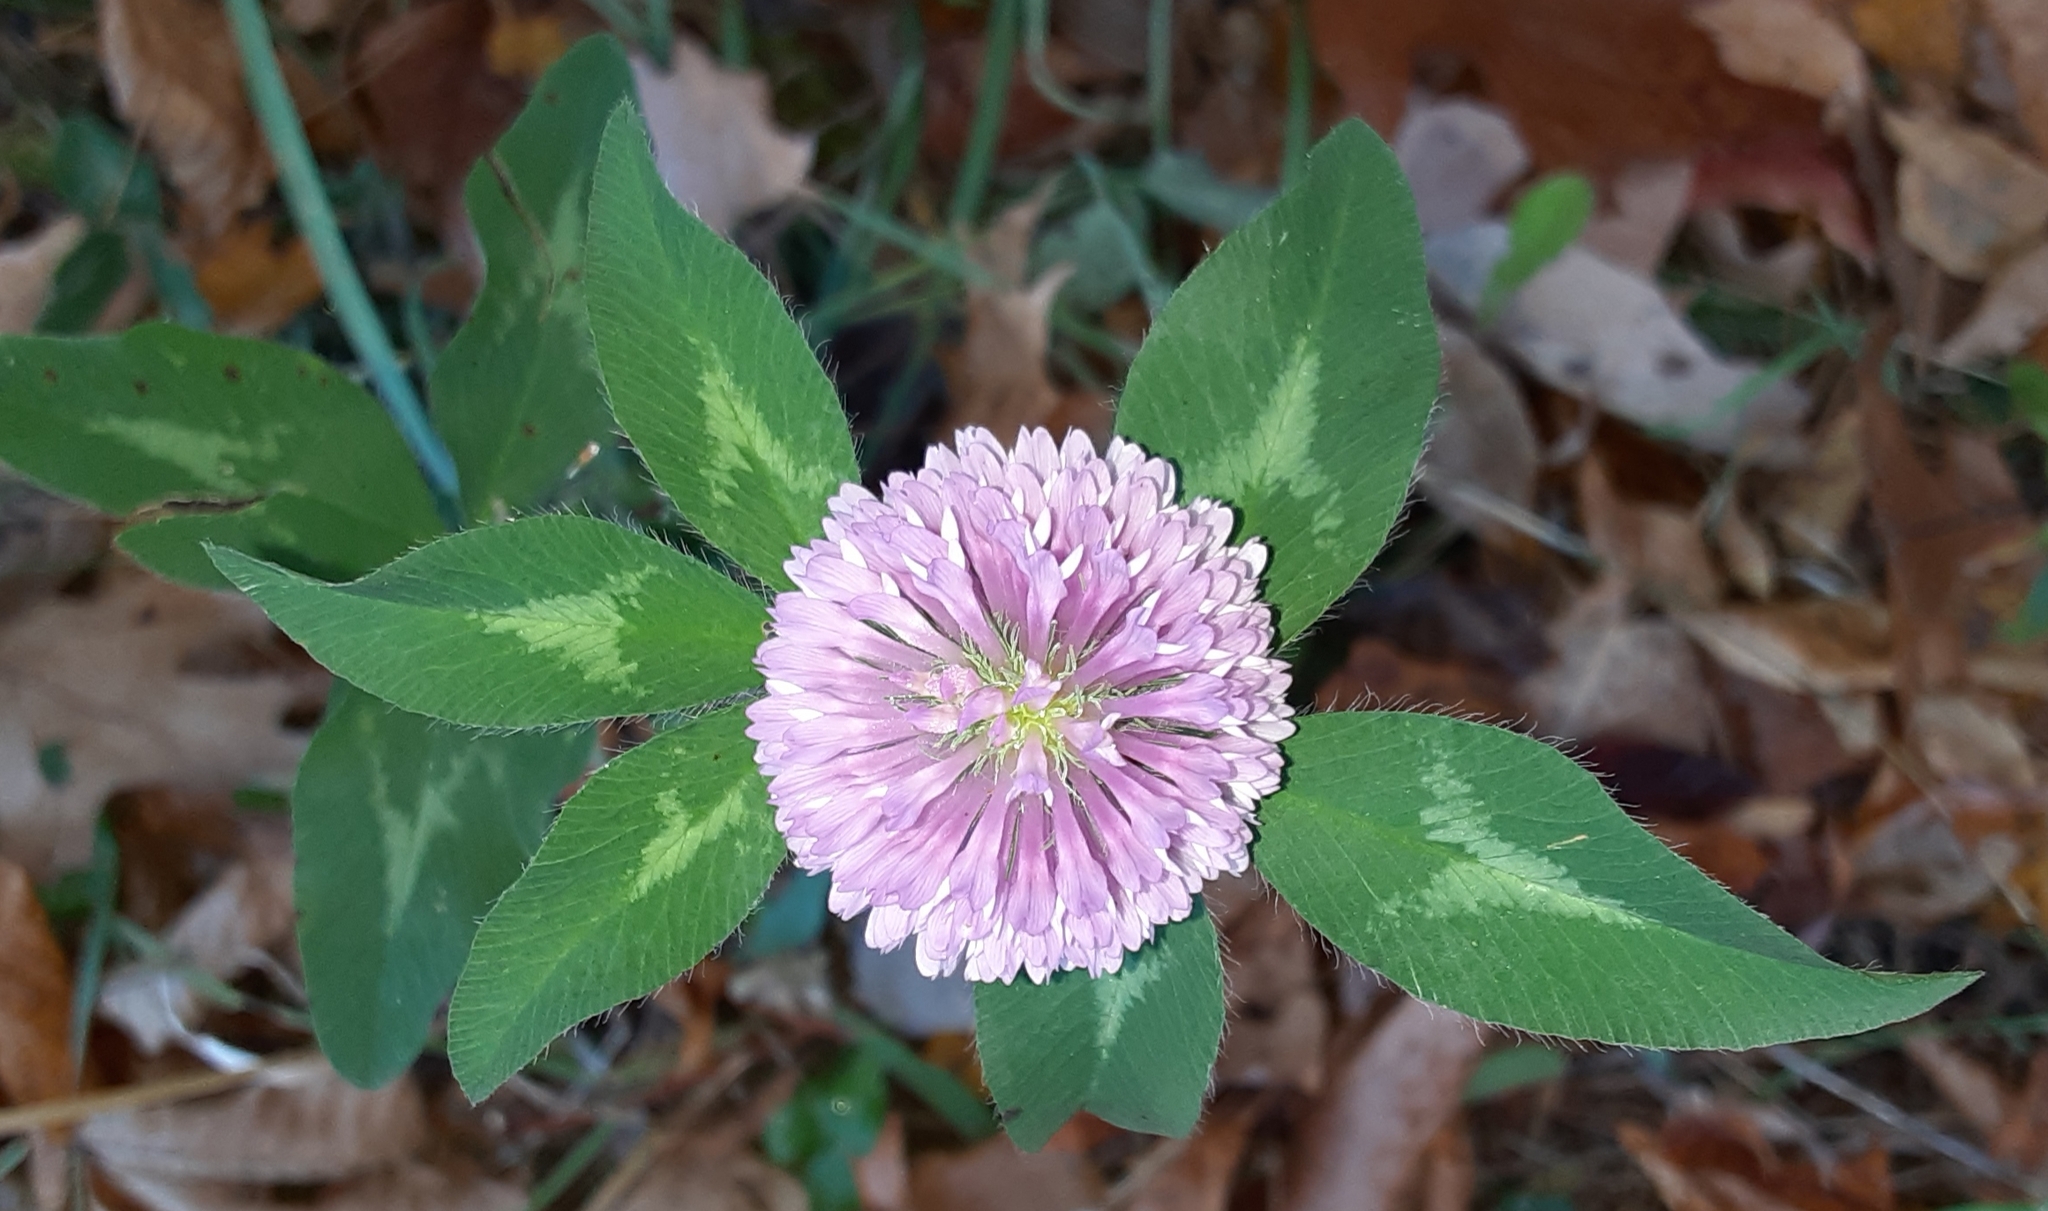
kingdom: Plantae
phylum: Tracheophyta
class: Magnoliopsida
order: Fabales
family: Fabaceae
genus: Trifolium
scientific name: Trifolium pratense
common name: Red clover
